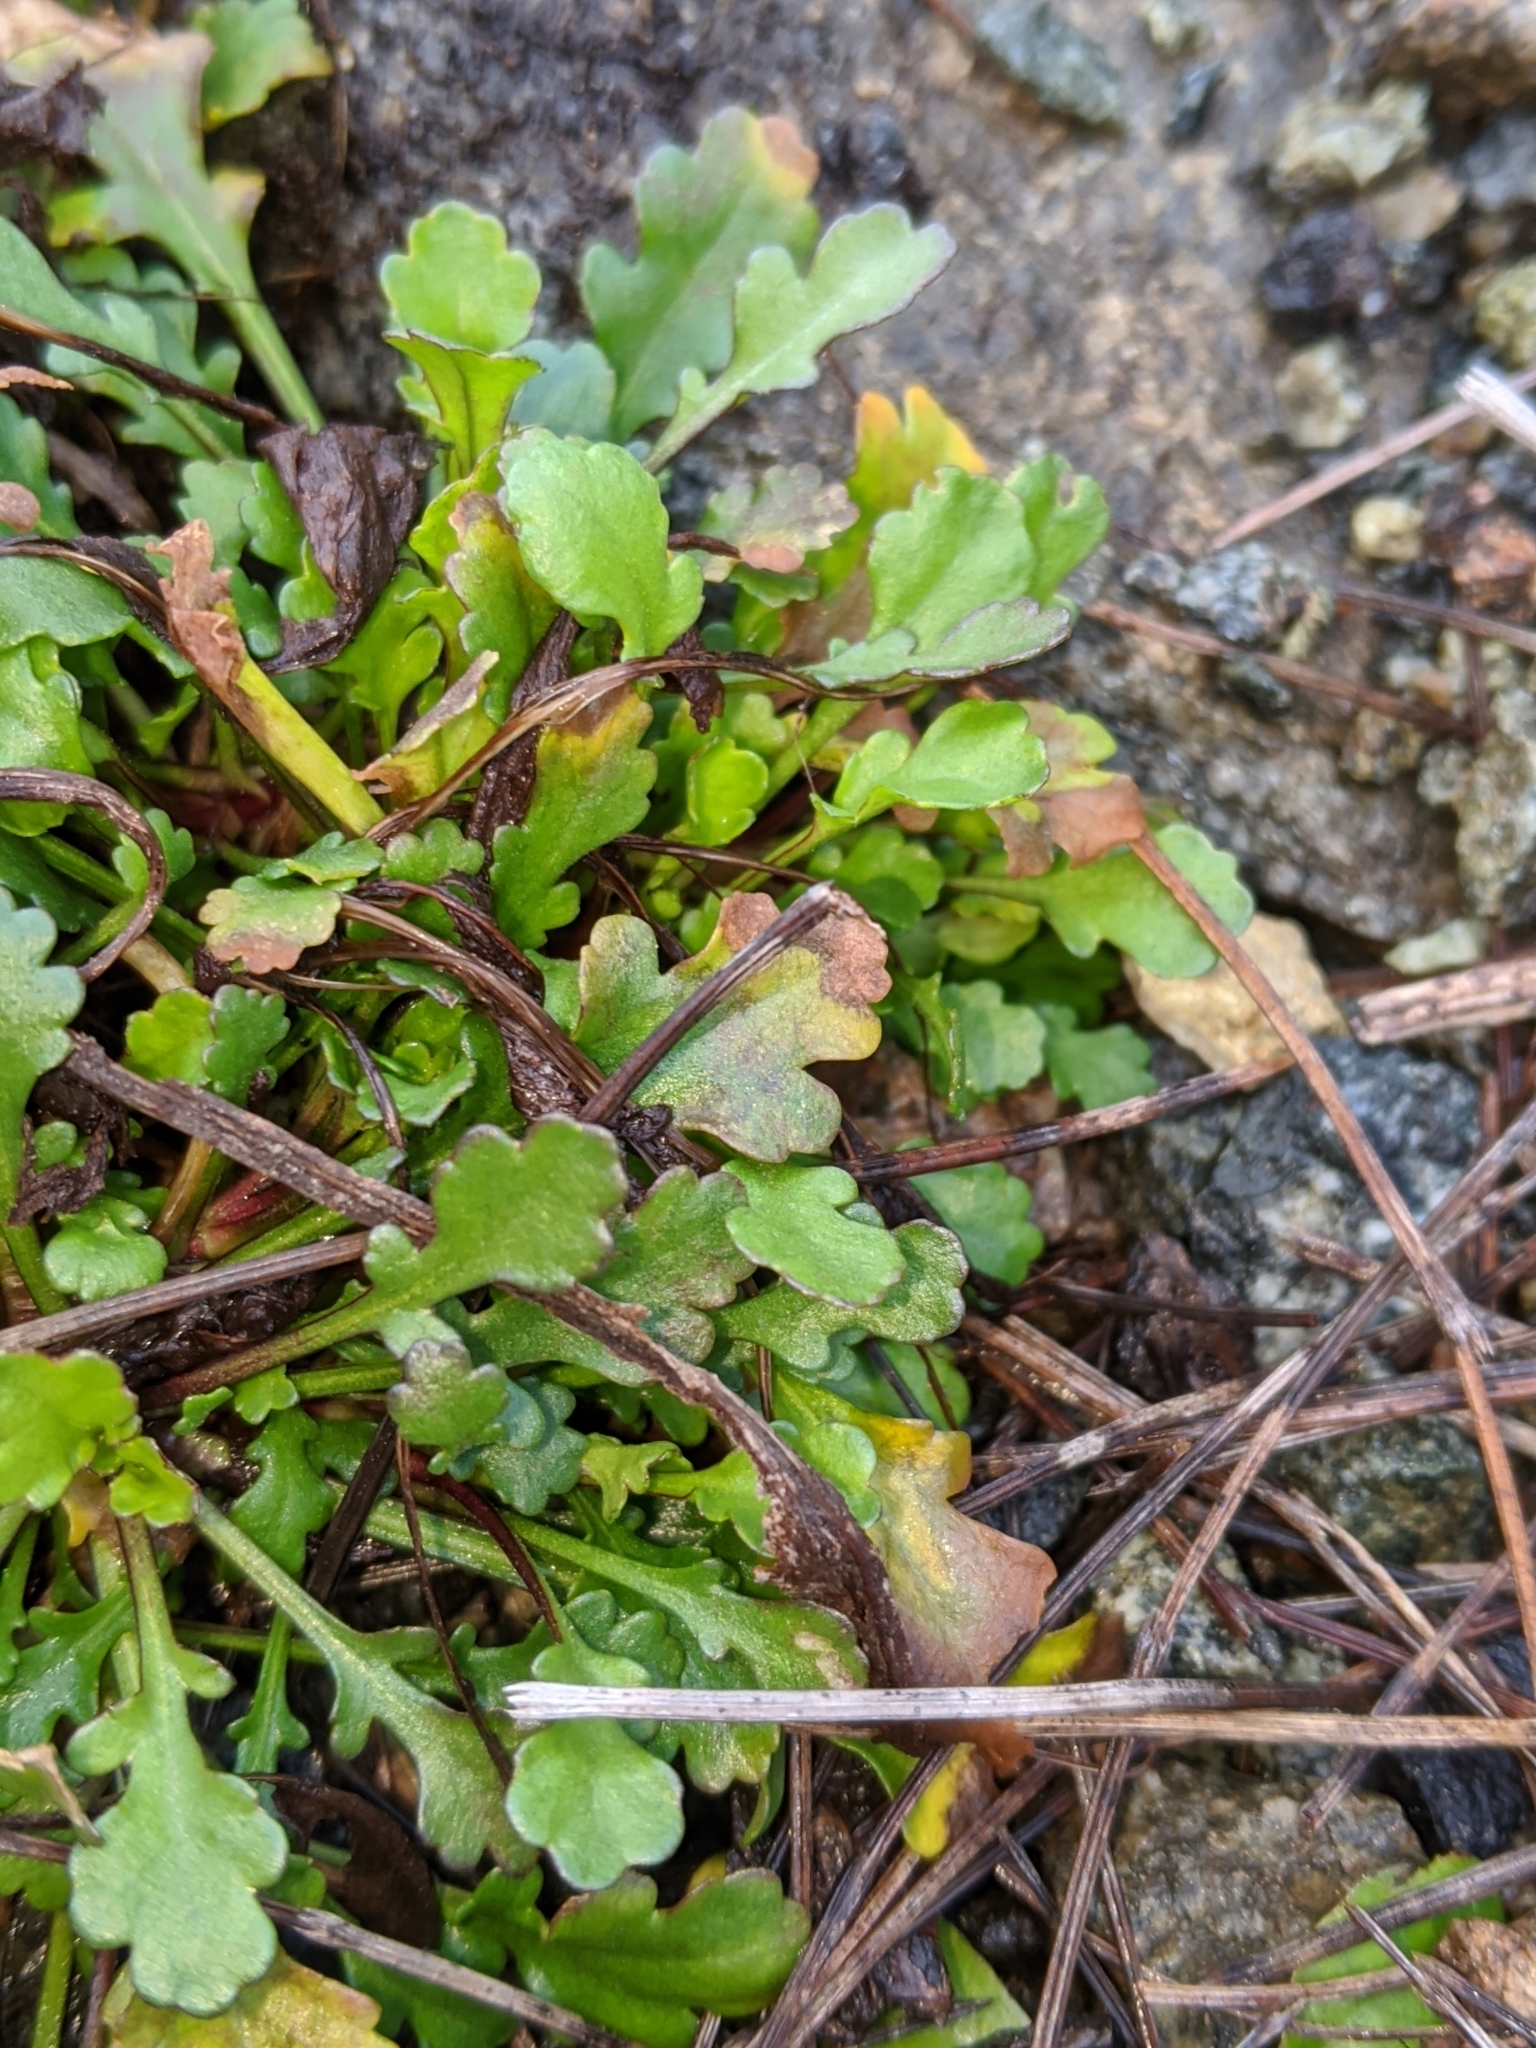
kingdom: Plantae
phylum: Tracheophyta
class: Magnoliopsida
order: Asterales
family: Asteraceae
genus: Leucanthemum
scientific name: Leucanthemum vulgare
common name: Oxeye daisy
